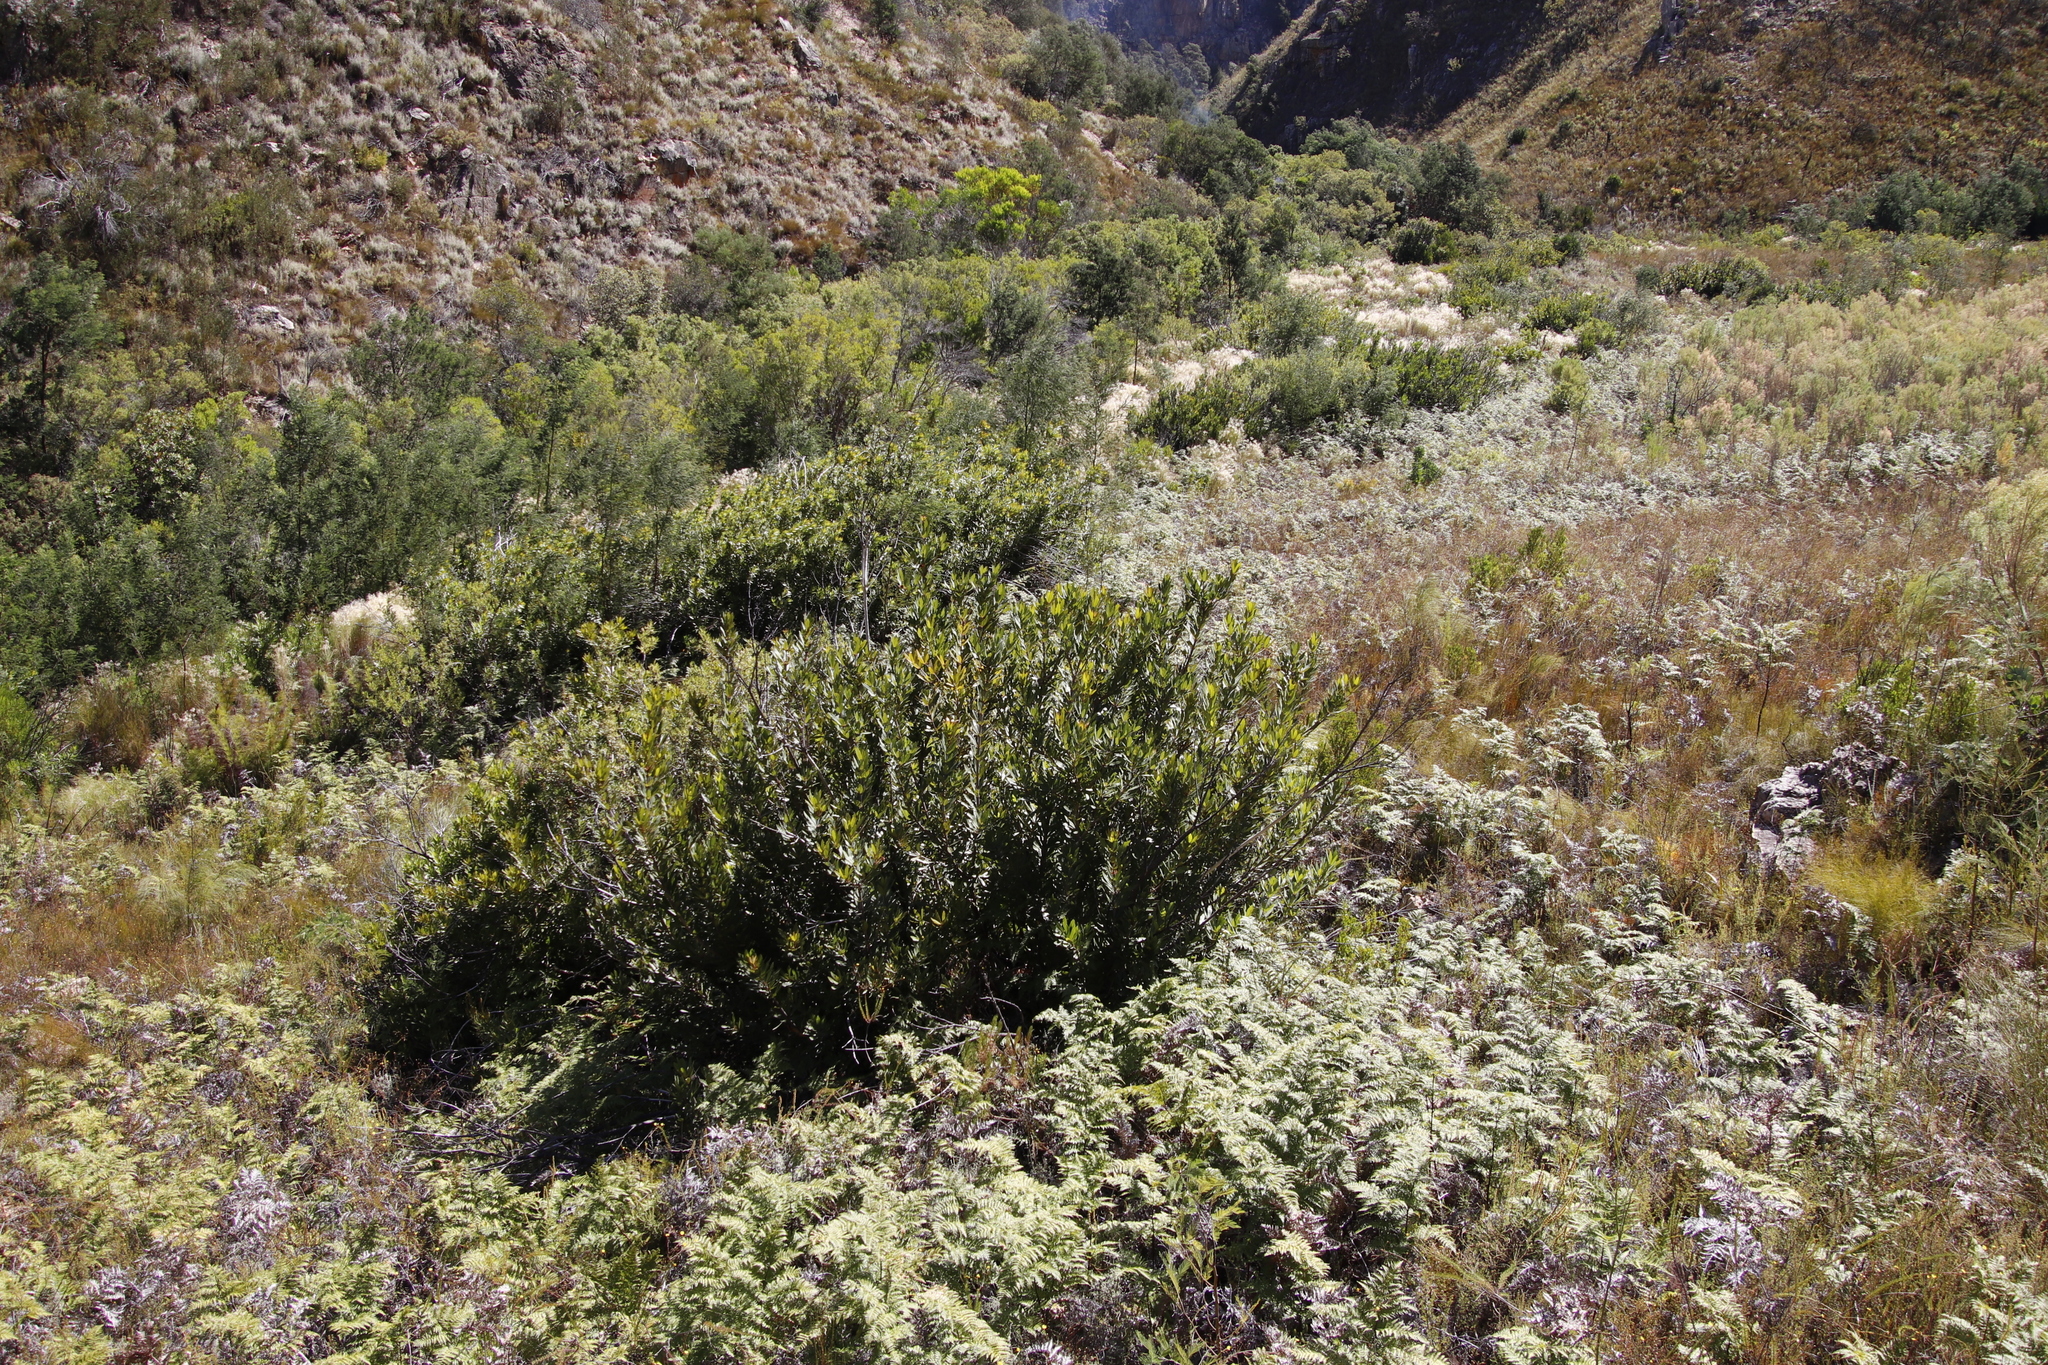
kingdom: Plantae
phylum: Tracheophyta
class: Magnoliopsida
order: Proteales
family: Proteaceae
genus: Brabejum
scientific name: Brabejum stellatifolium
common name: Wild almond
